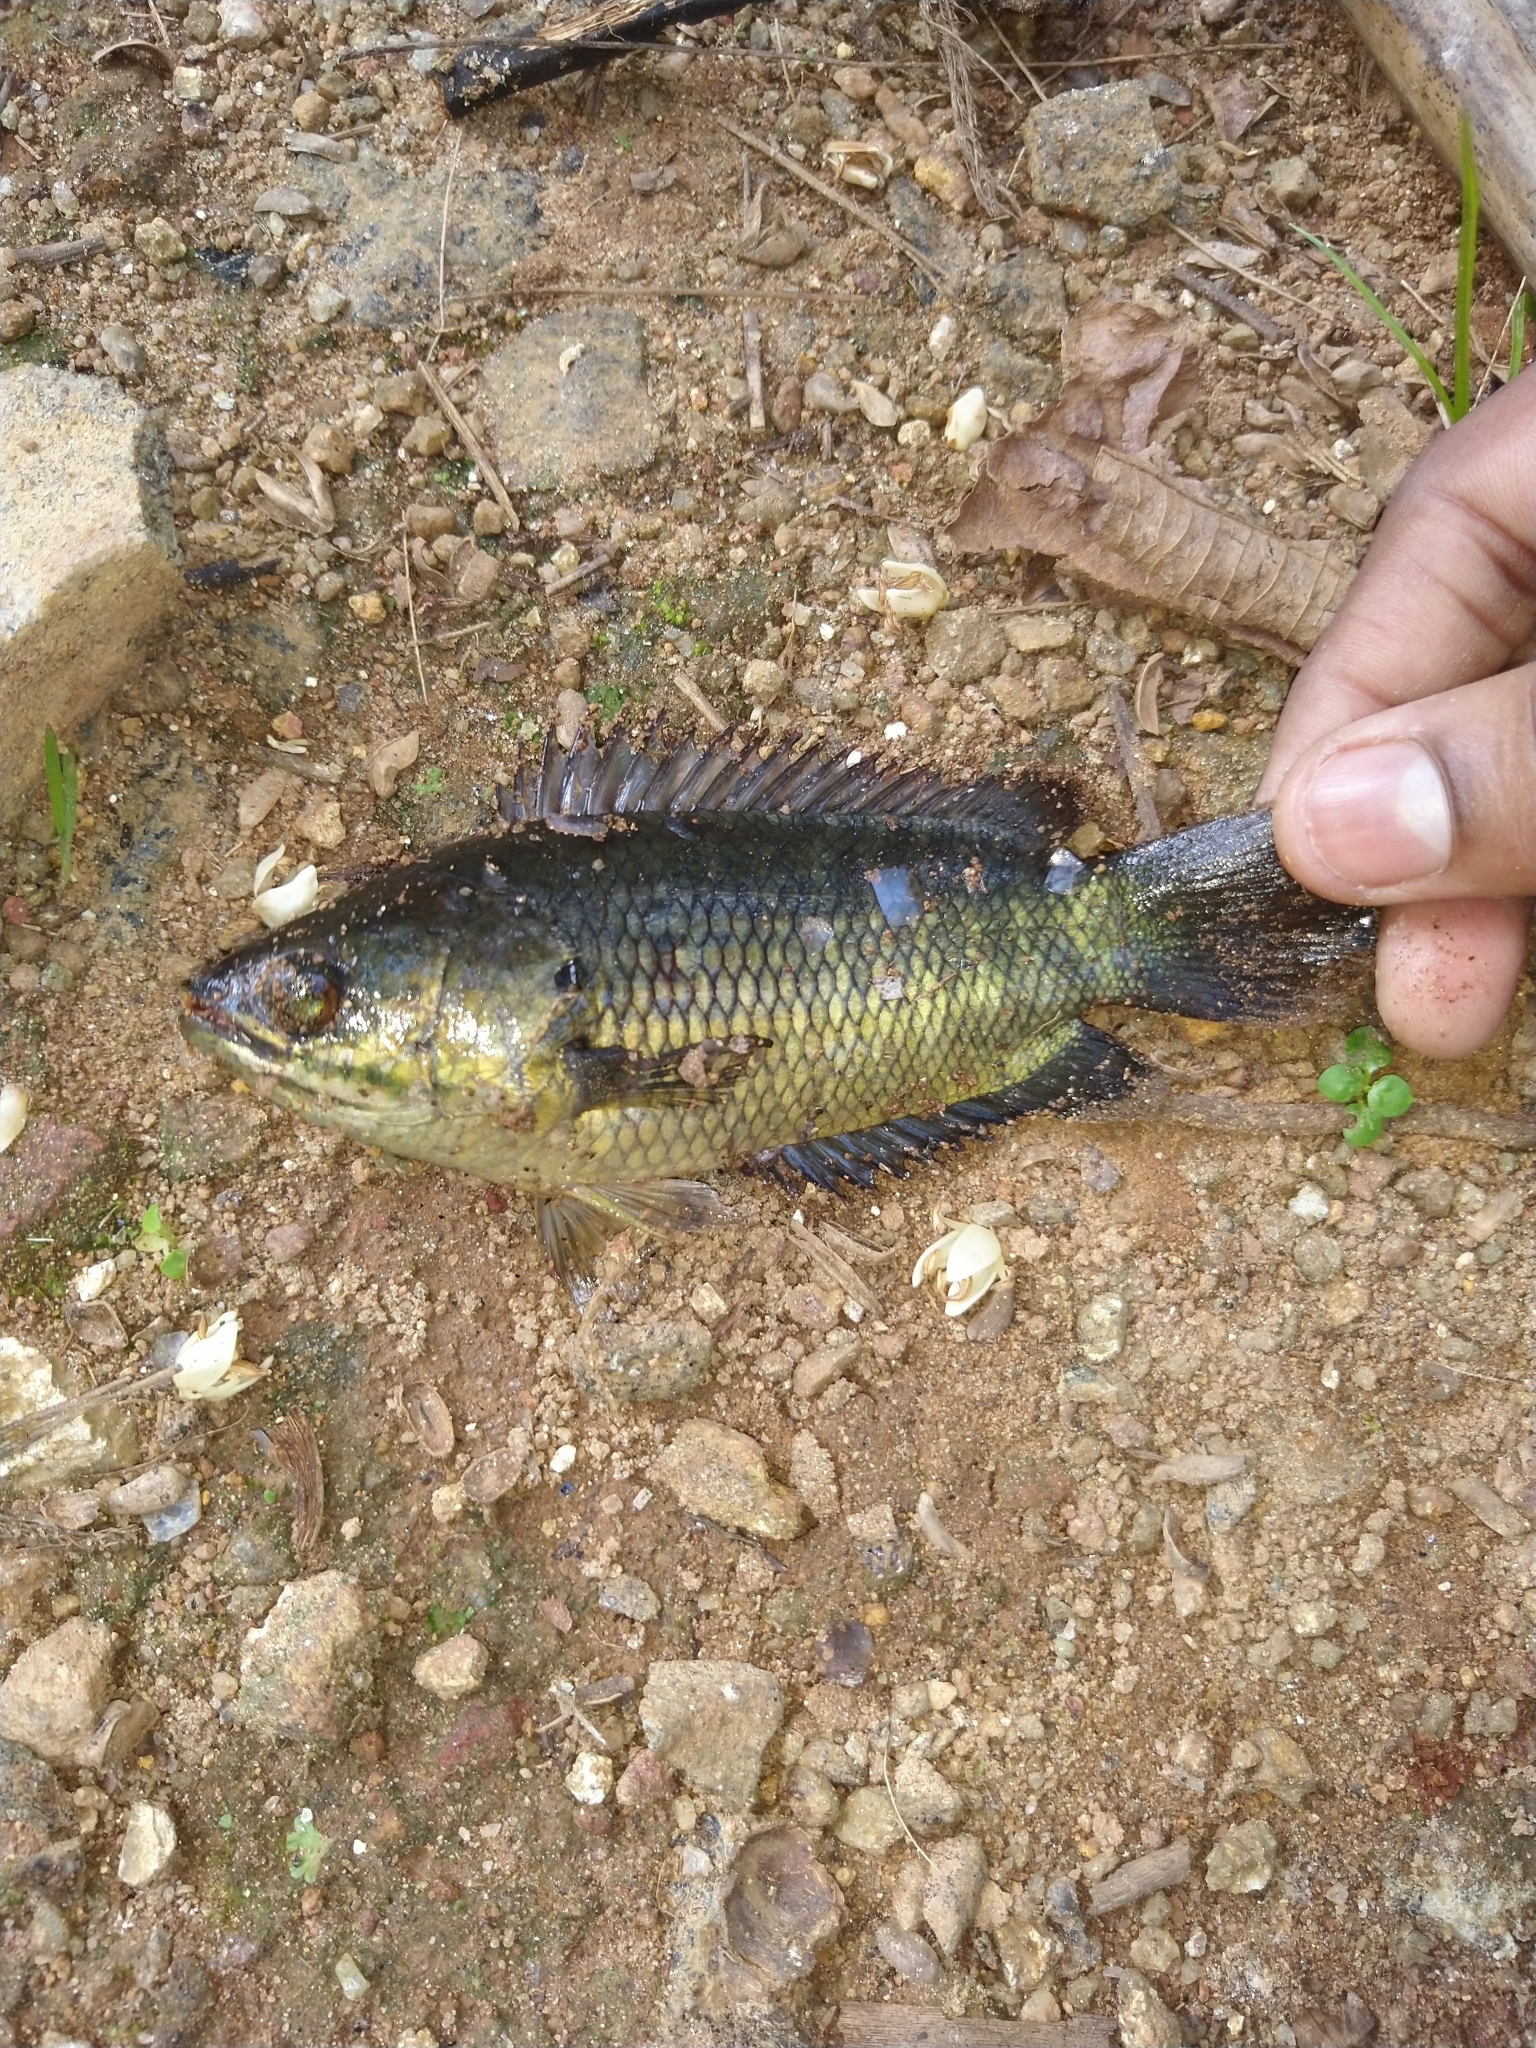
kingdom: Animalia
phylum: Chordata
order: Perciformes
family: Anabantidae
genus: Anabas
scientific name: Anabas testudineus
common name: Climbing perch
